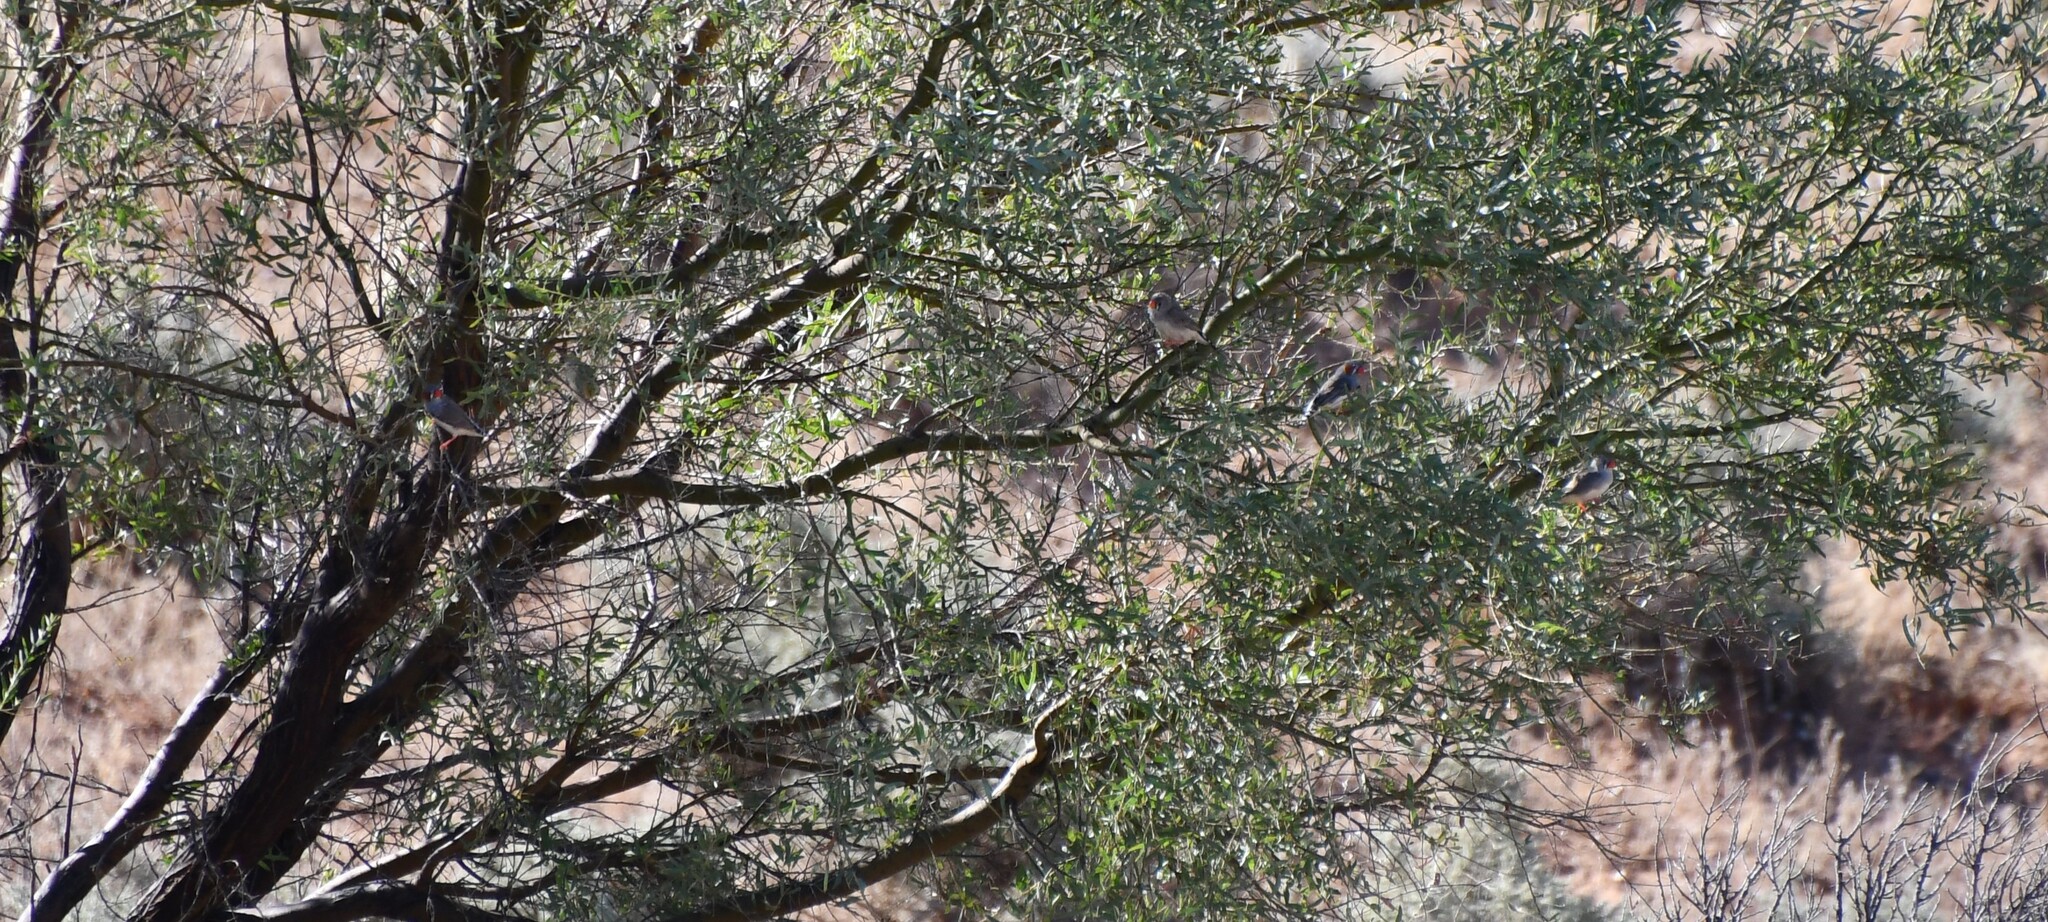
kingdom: Animalia
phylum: Chordata
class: Aves
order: Passeriformes
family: Estrildidae
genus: Taeniopygia
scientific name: Taeniopygia guttata
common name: Zebra finch
